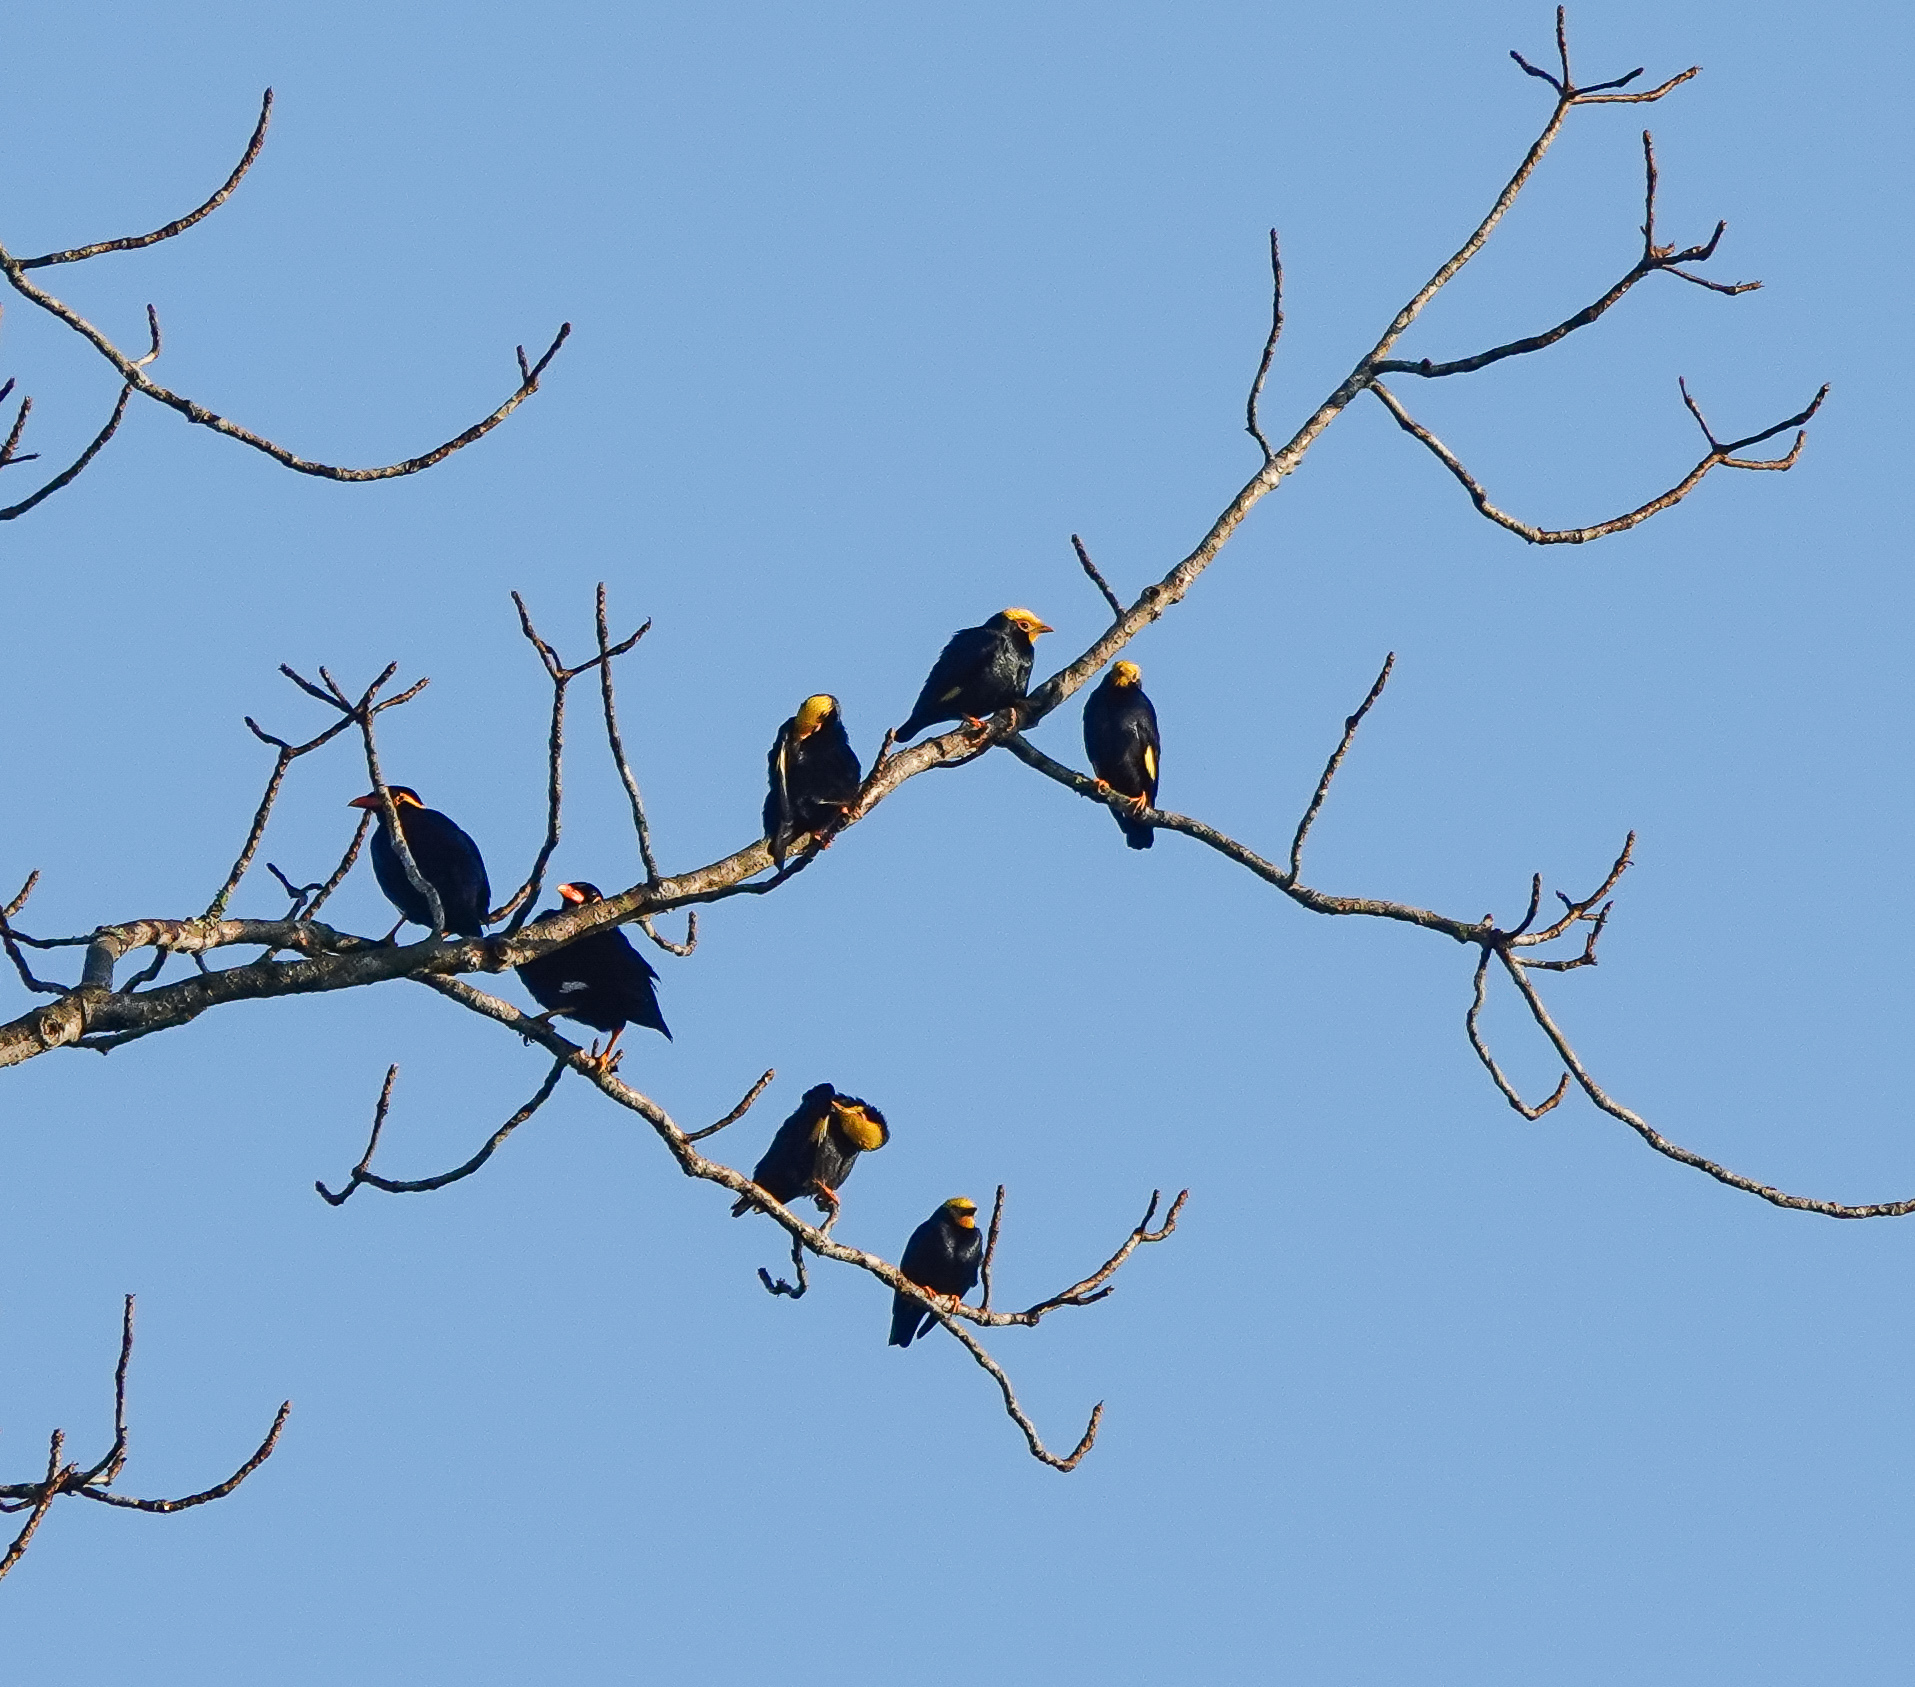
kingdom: Animalia
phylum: Chordata
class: Aves
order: Passeriformes
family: Sturnidae
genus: Ampeliceps
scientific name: Ampeliceps coronatus
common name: Golden-crested myna
